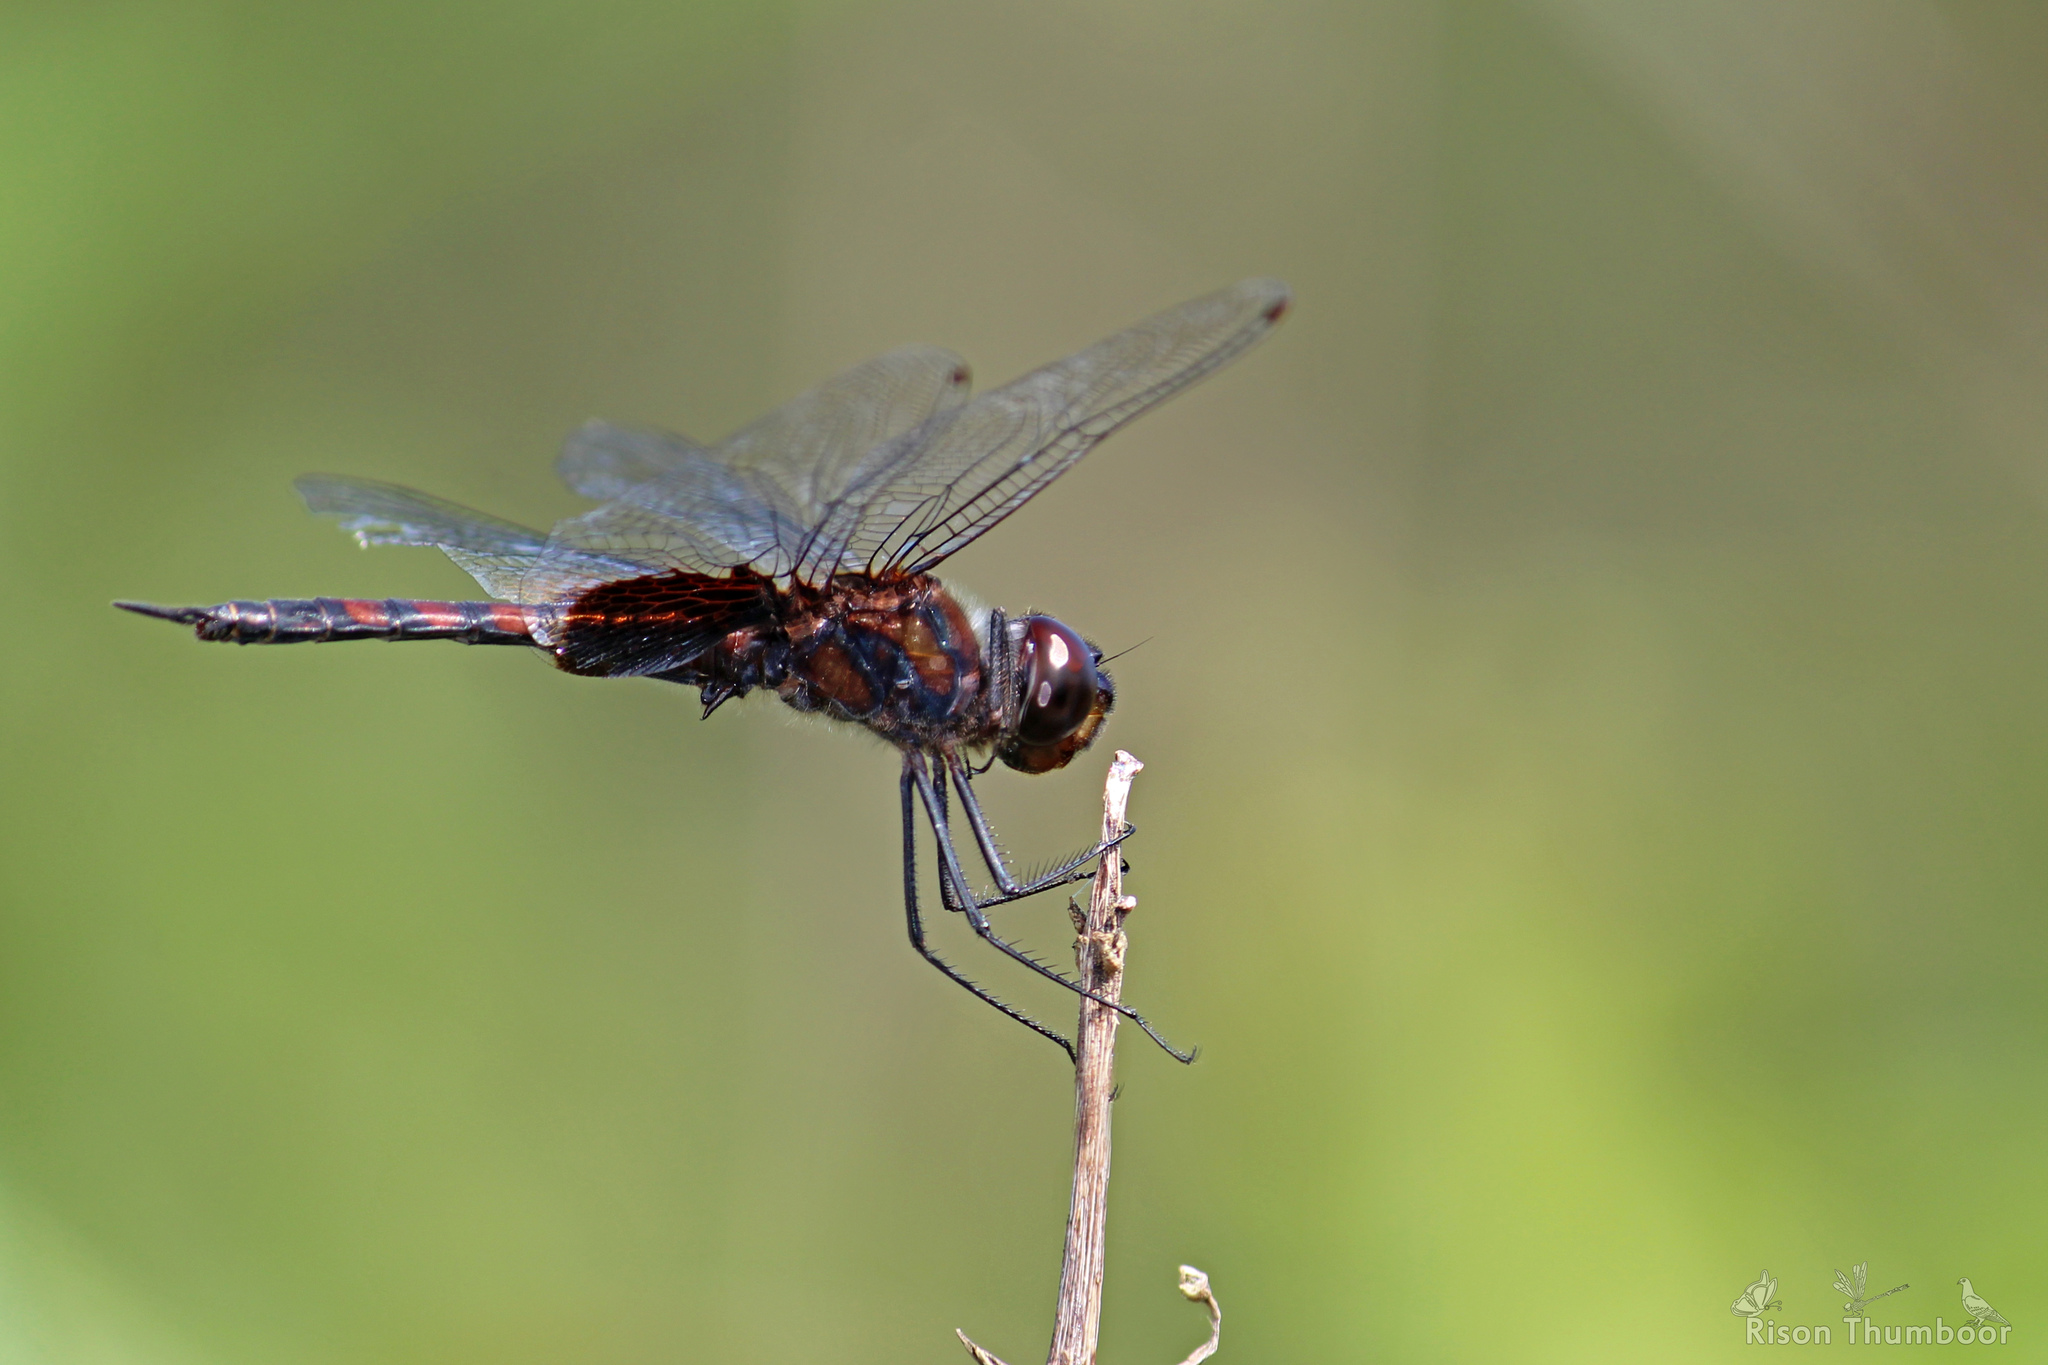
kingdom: Animalia
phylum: Arthropoda
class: Insecta
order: Odonata
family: Libellulidae
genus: Tramea
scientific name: Tramea limbata
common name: Ferruginous glider
